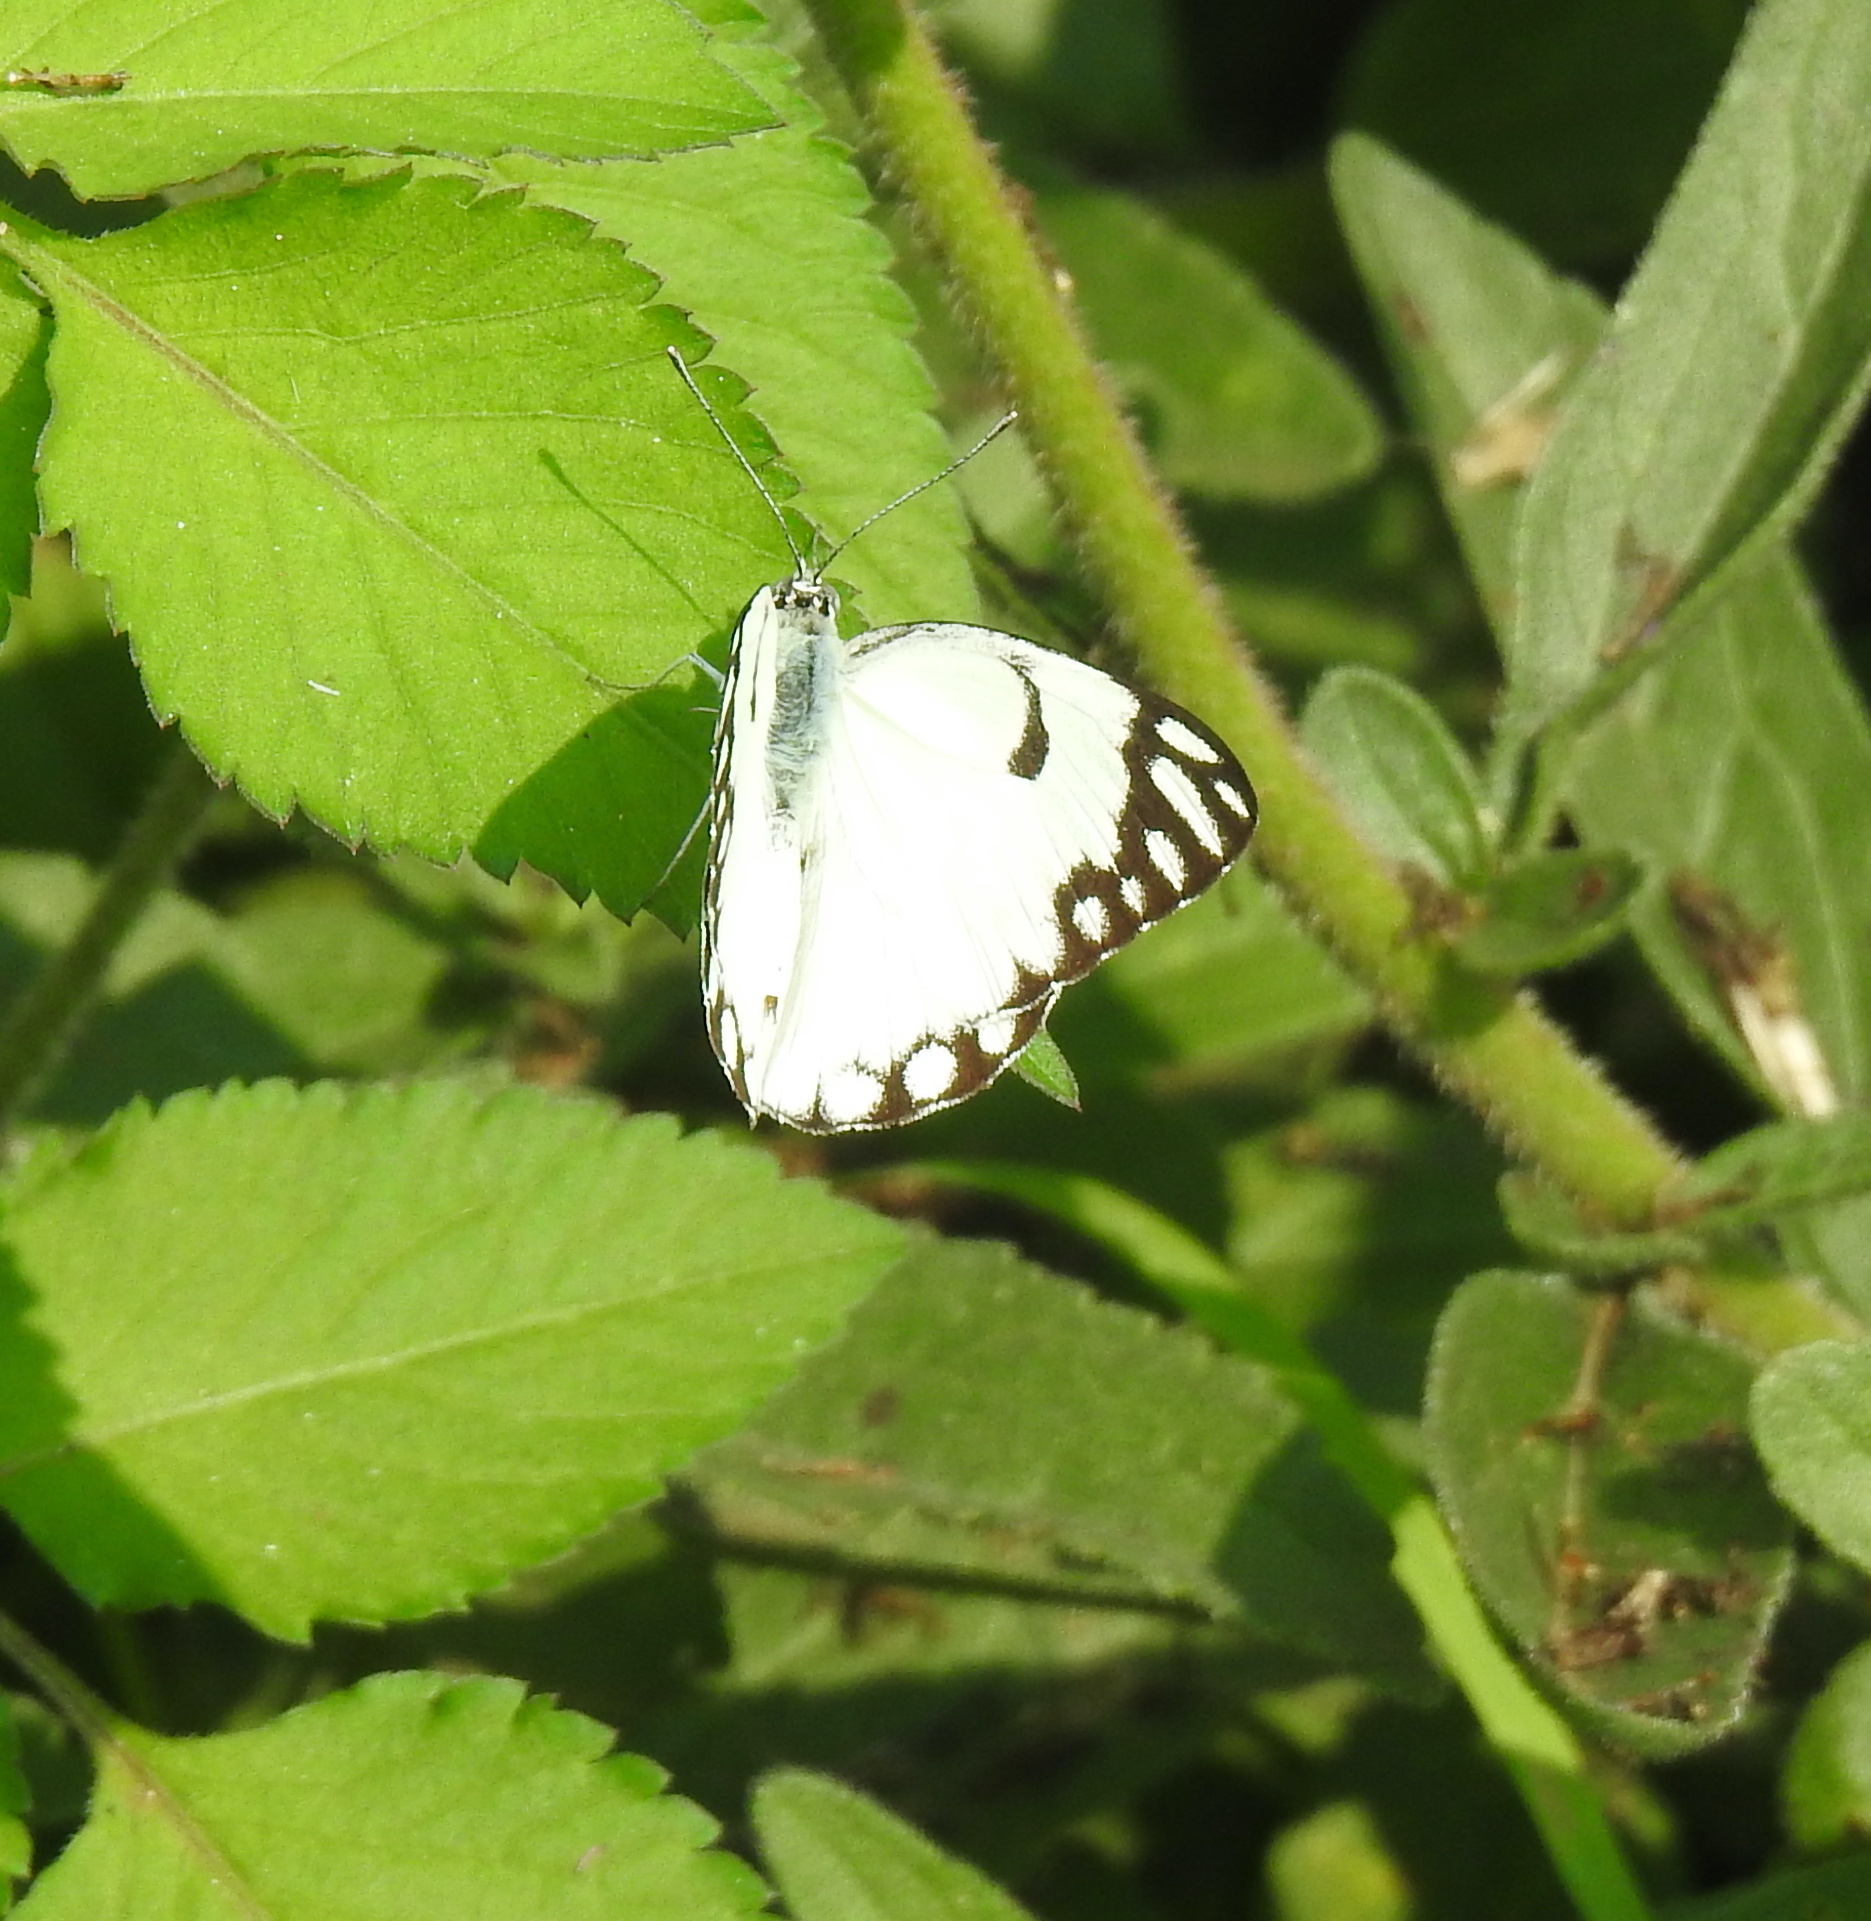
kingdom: Animalia
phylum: Arthropoda
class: Insecta
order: Lepidoptera
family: Pieridae
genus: Belenois
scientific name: Belenois aurota
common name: Brown-veined white
